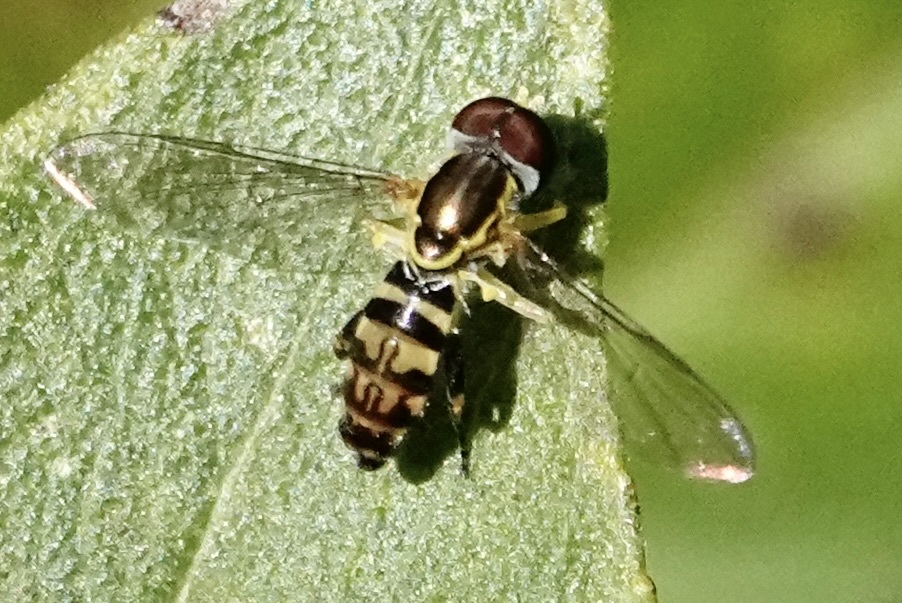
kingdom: Animalia
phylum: Arthropoda
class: Insecta
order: Diptera
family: Syrphidae
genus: Toxomerus
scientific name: Toxomerus geminatus
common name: Eastern calligrapher
